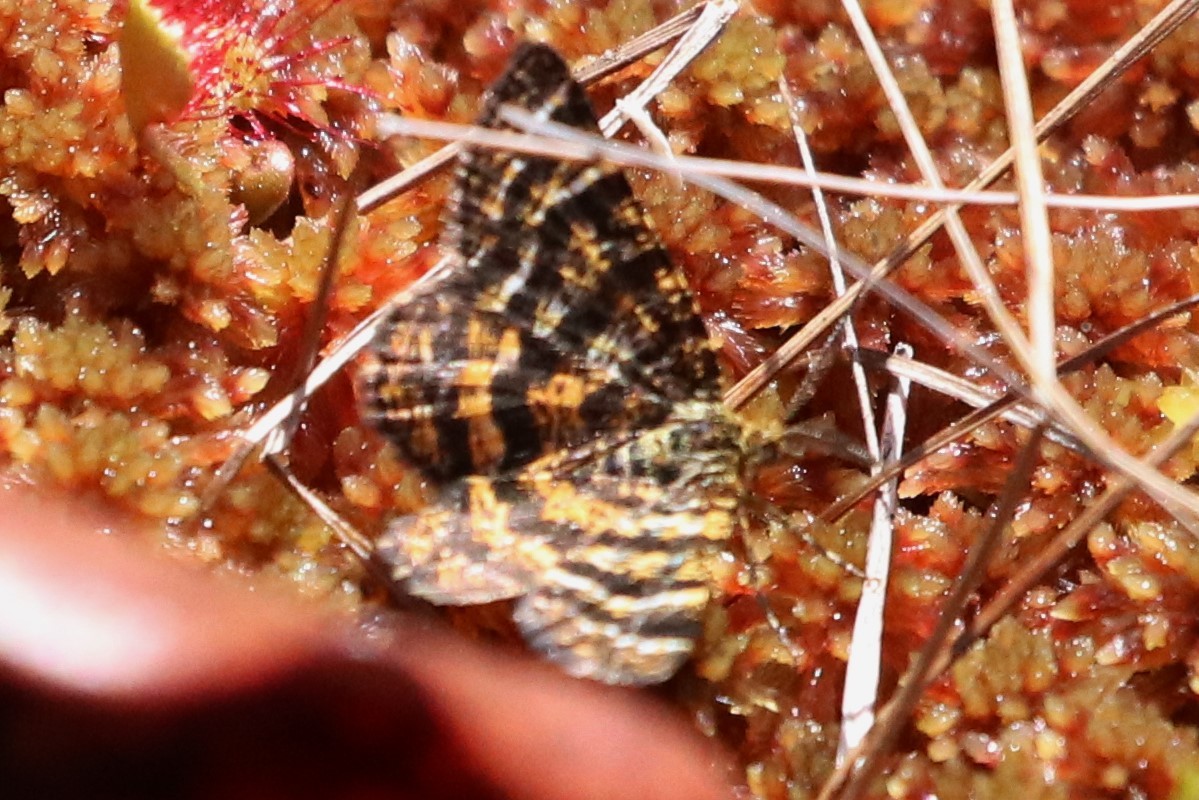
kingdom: Animalia
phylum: Arthropoda
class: Insecta
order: Lepidoptera
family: Geometridae
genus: Macaria
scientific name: Macaria truncataria
